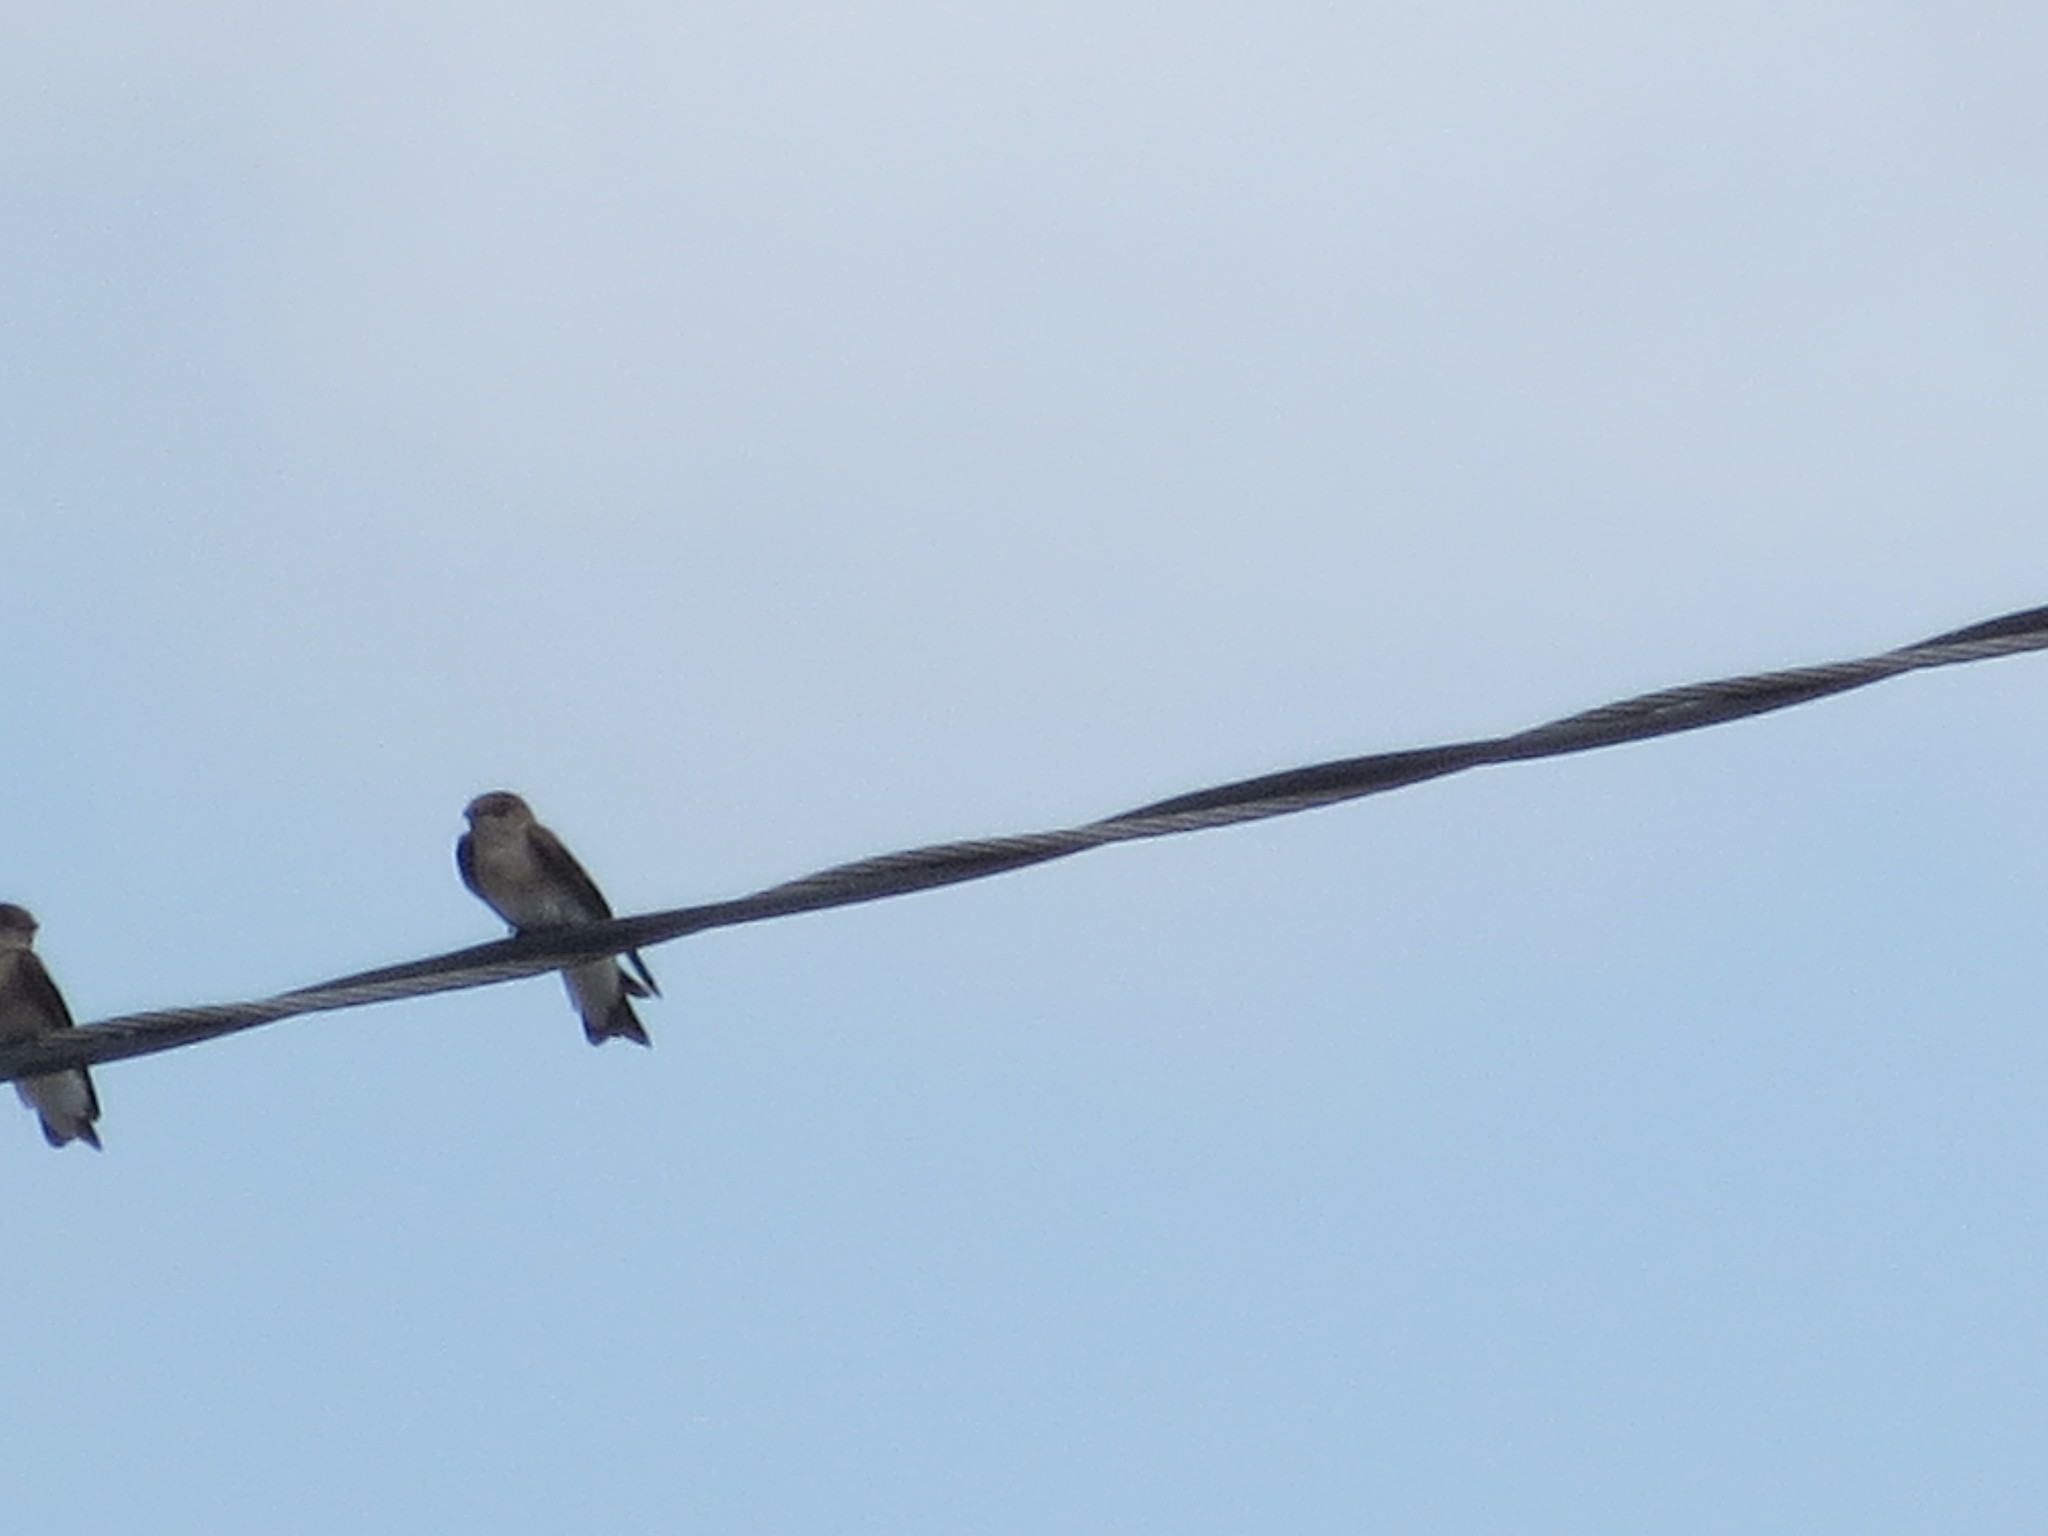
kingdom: Animalia
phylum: Chordata
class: Aves
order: Passeriformes
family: Hirundinidae
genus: Stelgidopteryx
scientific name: Stelgidopteryx serripennis
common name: Northern rough-winged swallow
